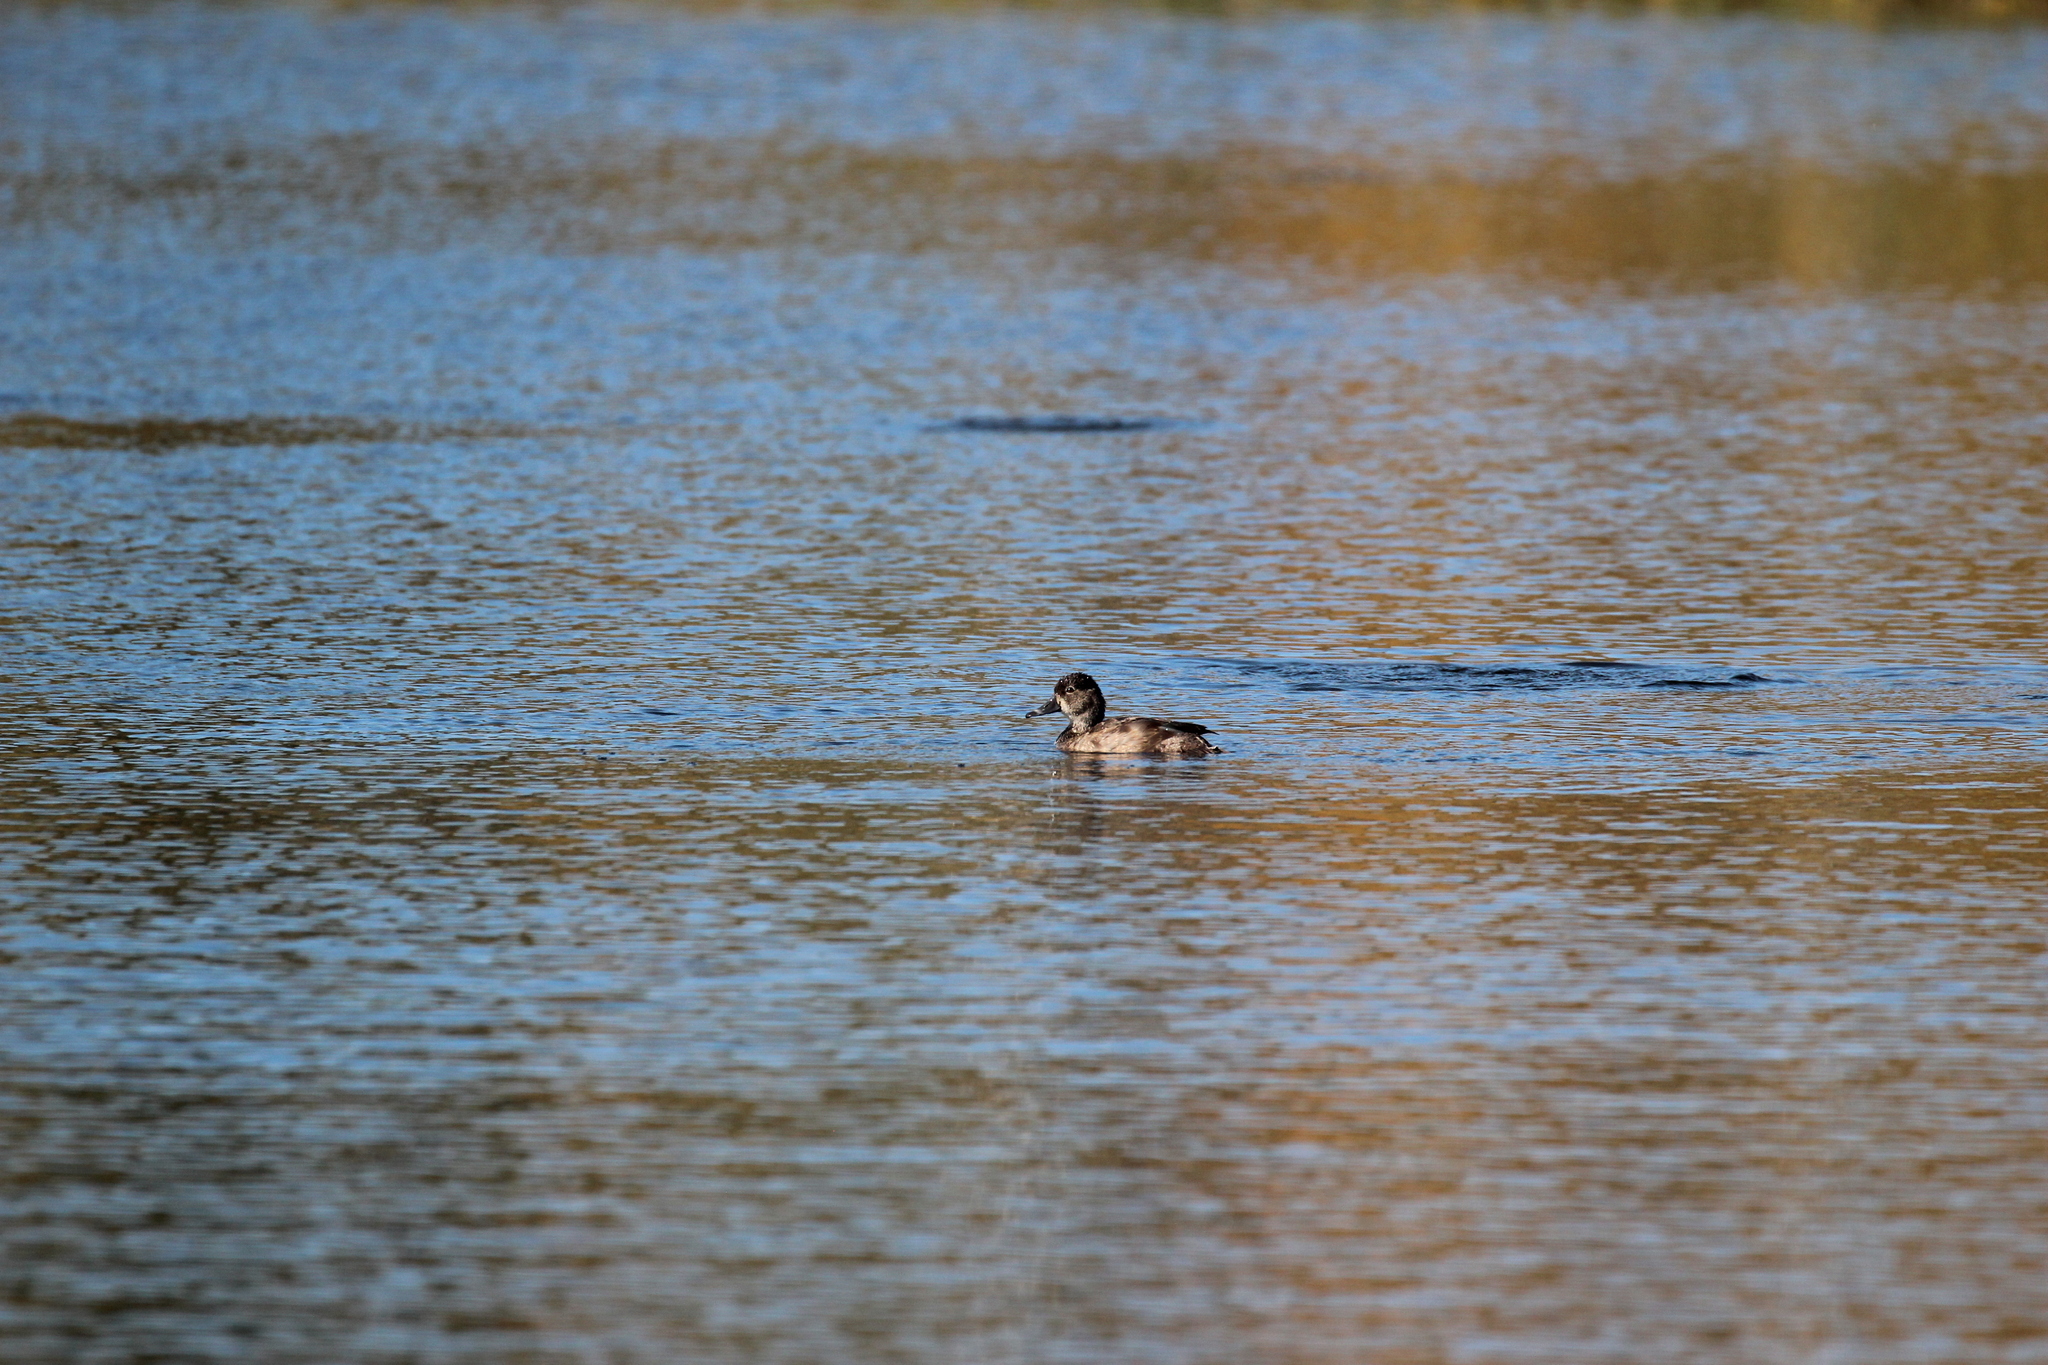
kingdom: Animalia
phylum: Chordata
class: Aves
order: Anseriformes
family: Anatidae
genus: Aythya
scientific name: Aythya collaris
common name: Ring-necked duck
